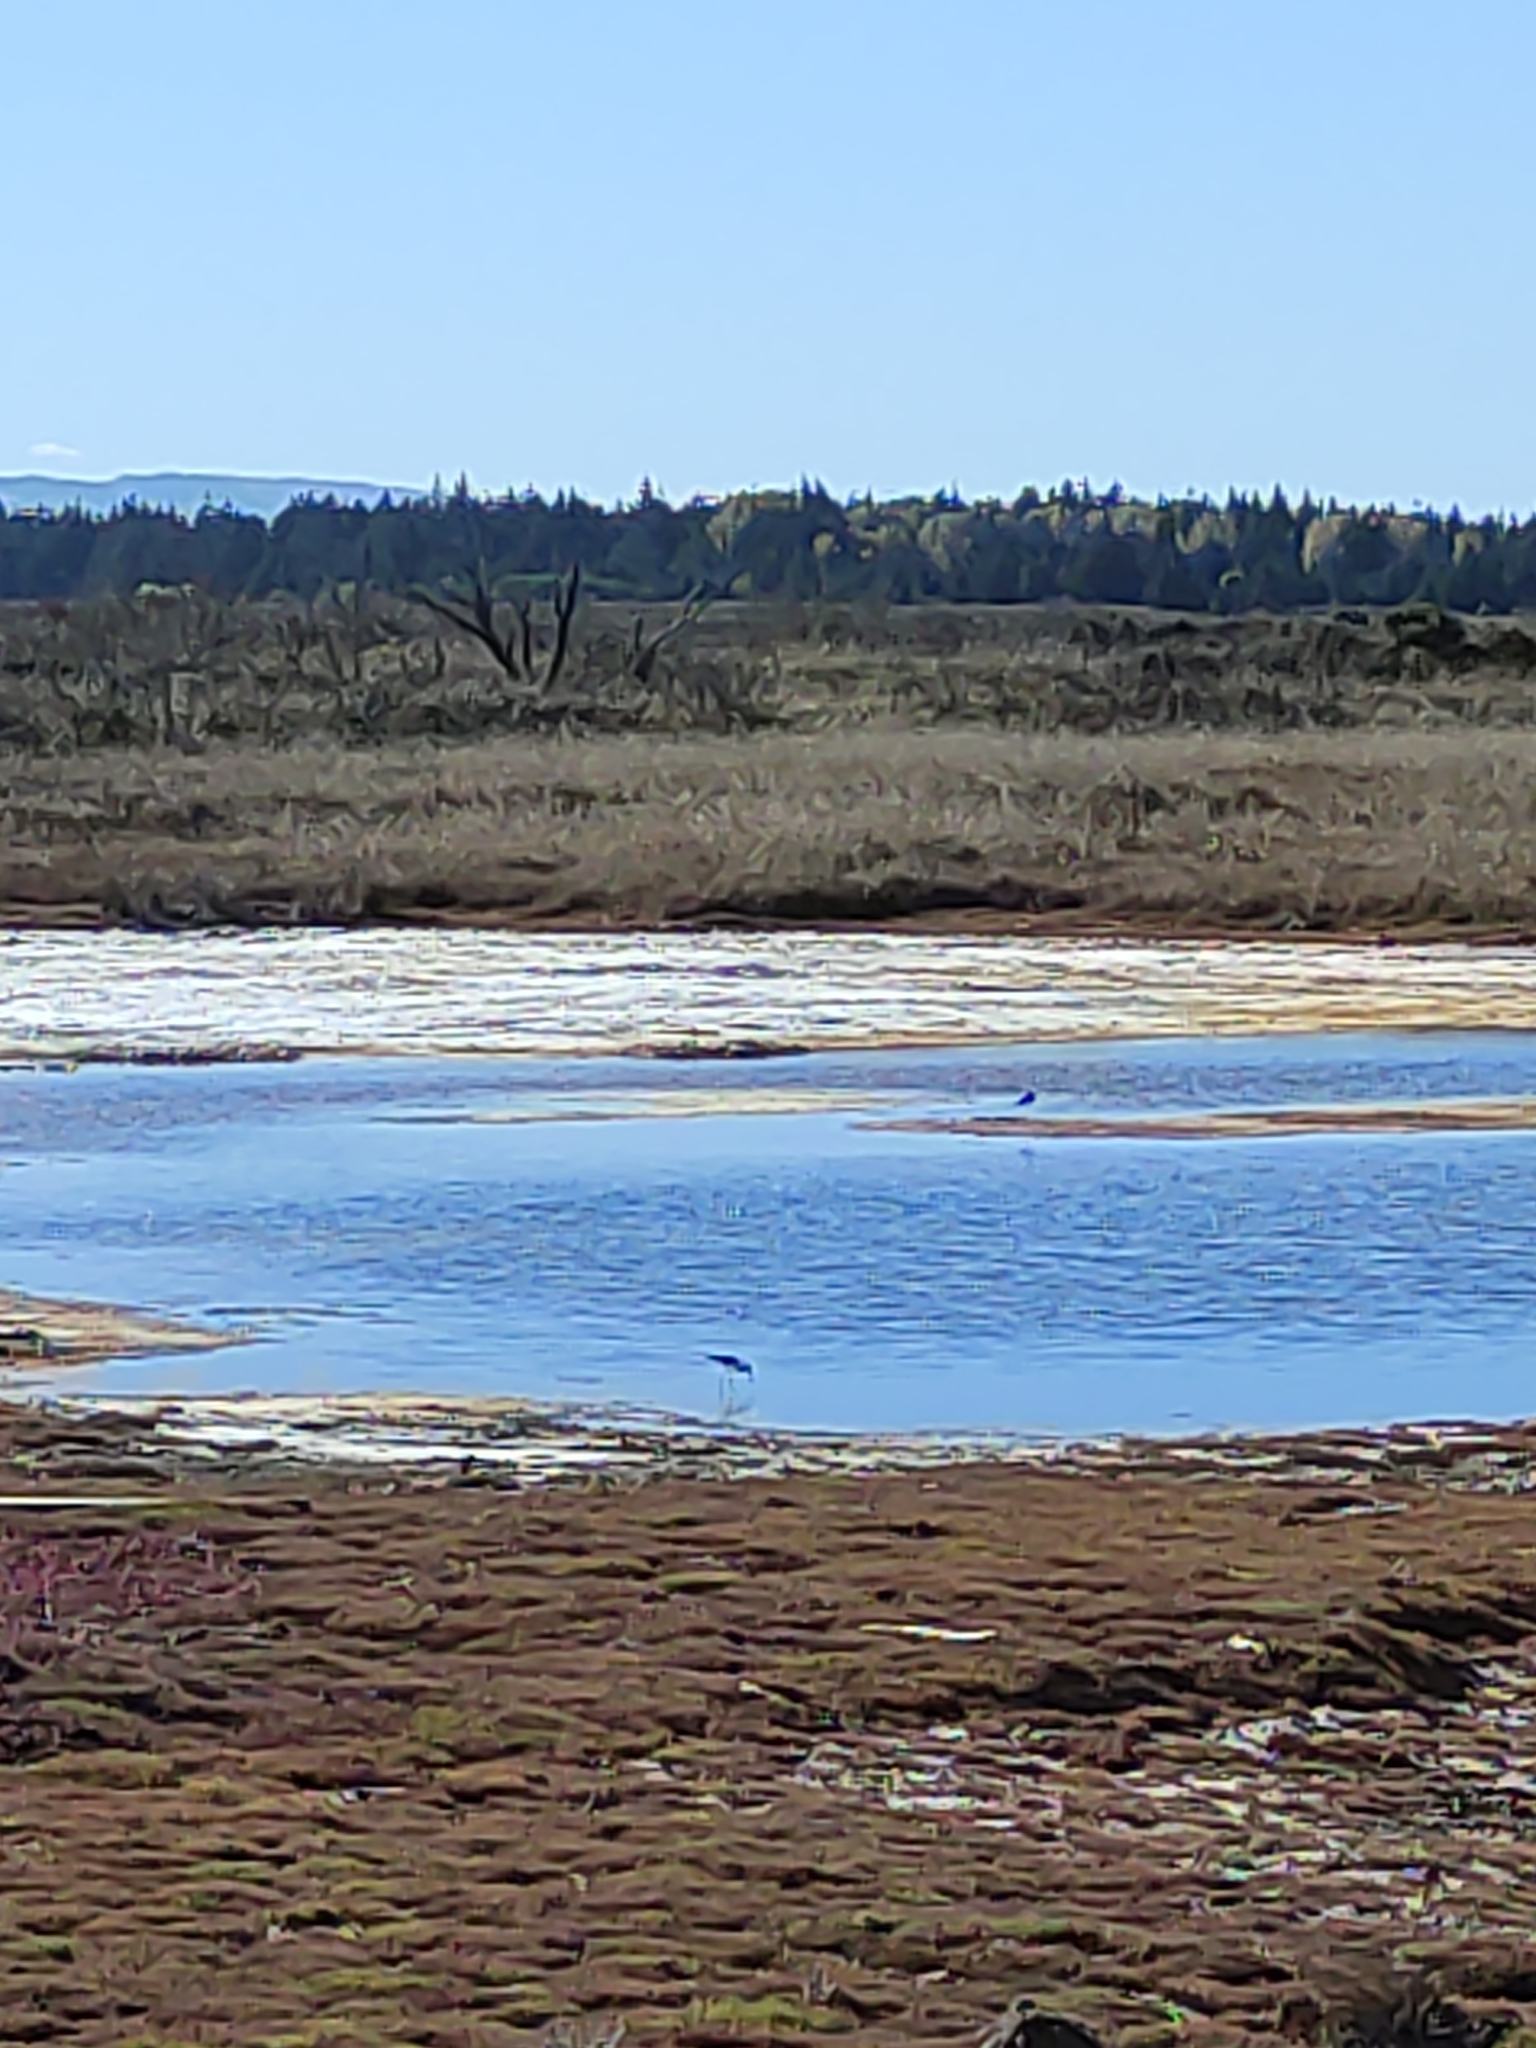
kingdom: Animalia
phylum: Chordata
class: Aves
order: Charadriiformes
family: Recurvirostridae
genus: Himantopus
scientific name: Himantopus leucocephalus
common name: White-headed stilt
